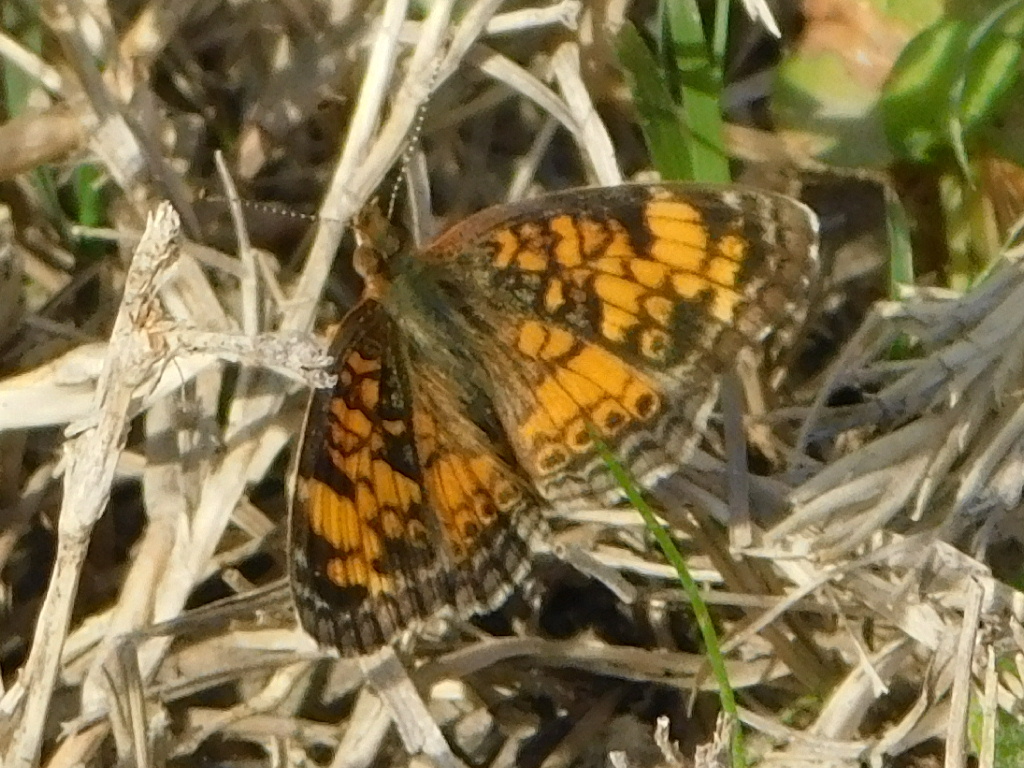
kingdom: Animalia
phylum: Arthropoda
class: Insecta
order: Lepidoptera
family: Nymphalidae
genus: Phyciodes
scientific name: Phyciodes tharos
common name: Pearl crescent
